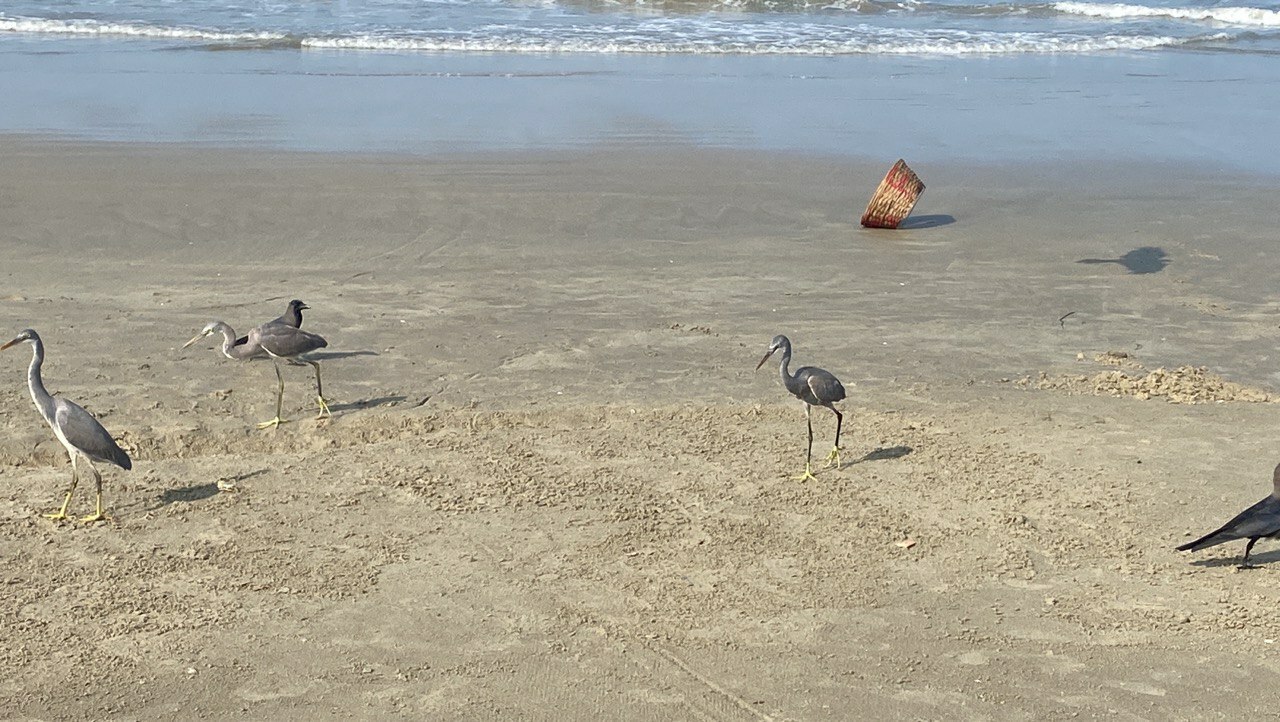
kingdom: Animalia
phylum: Chordata
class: Aves
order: Pelecaniformes
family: Ardeidae
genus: Egretta
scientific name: Egretta gularis
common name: Western reef-heron
